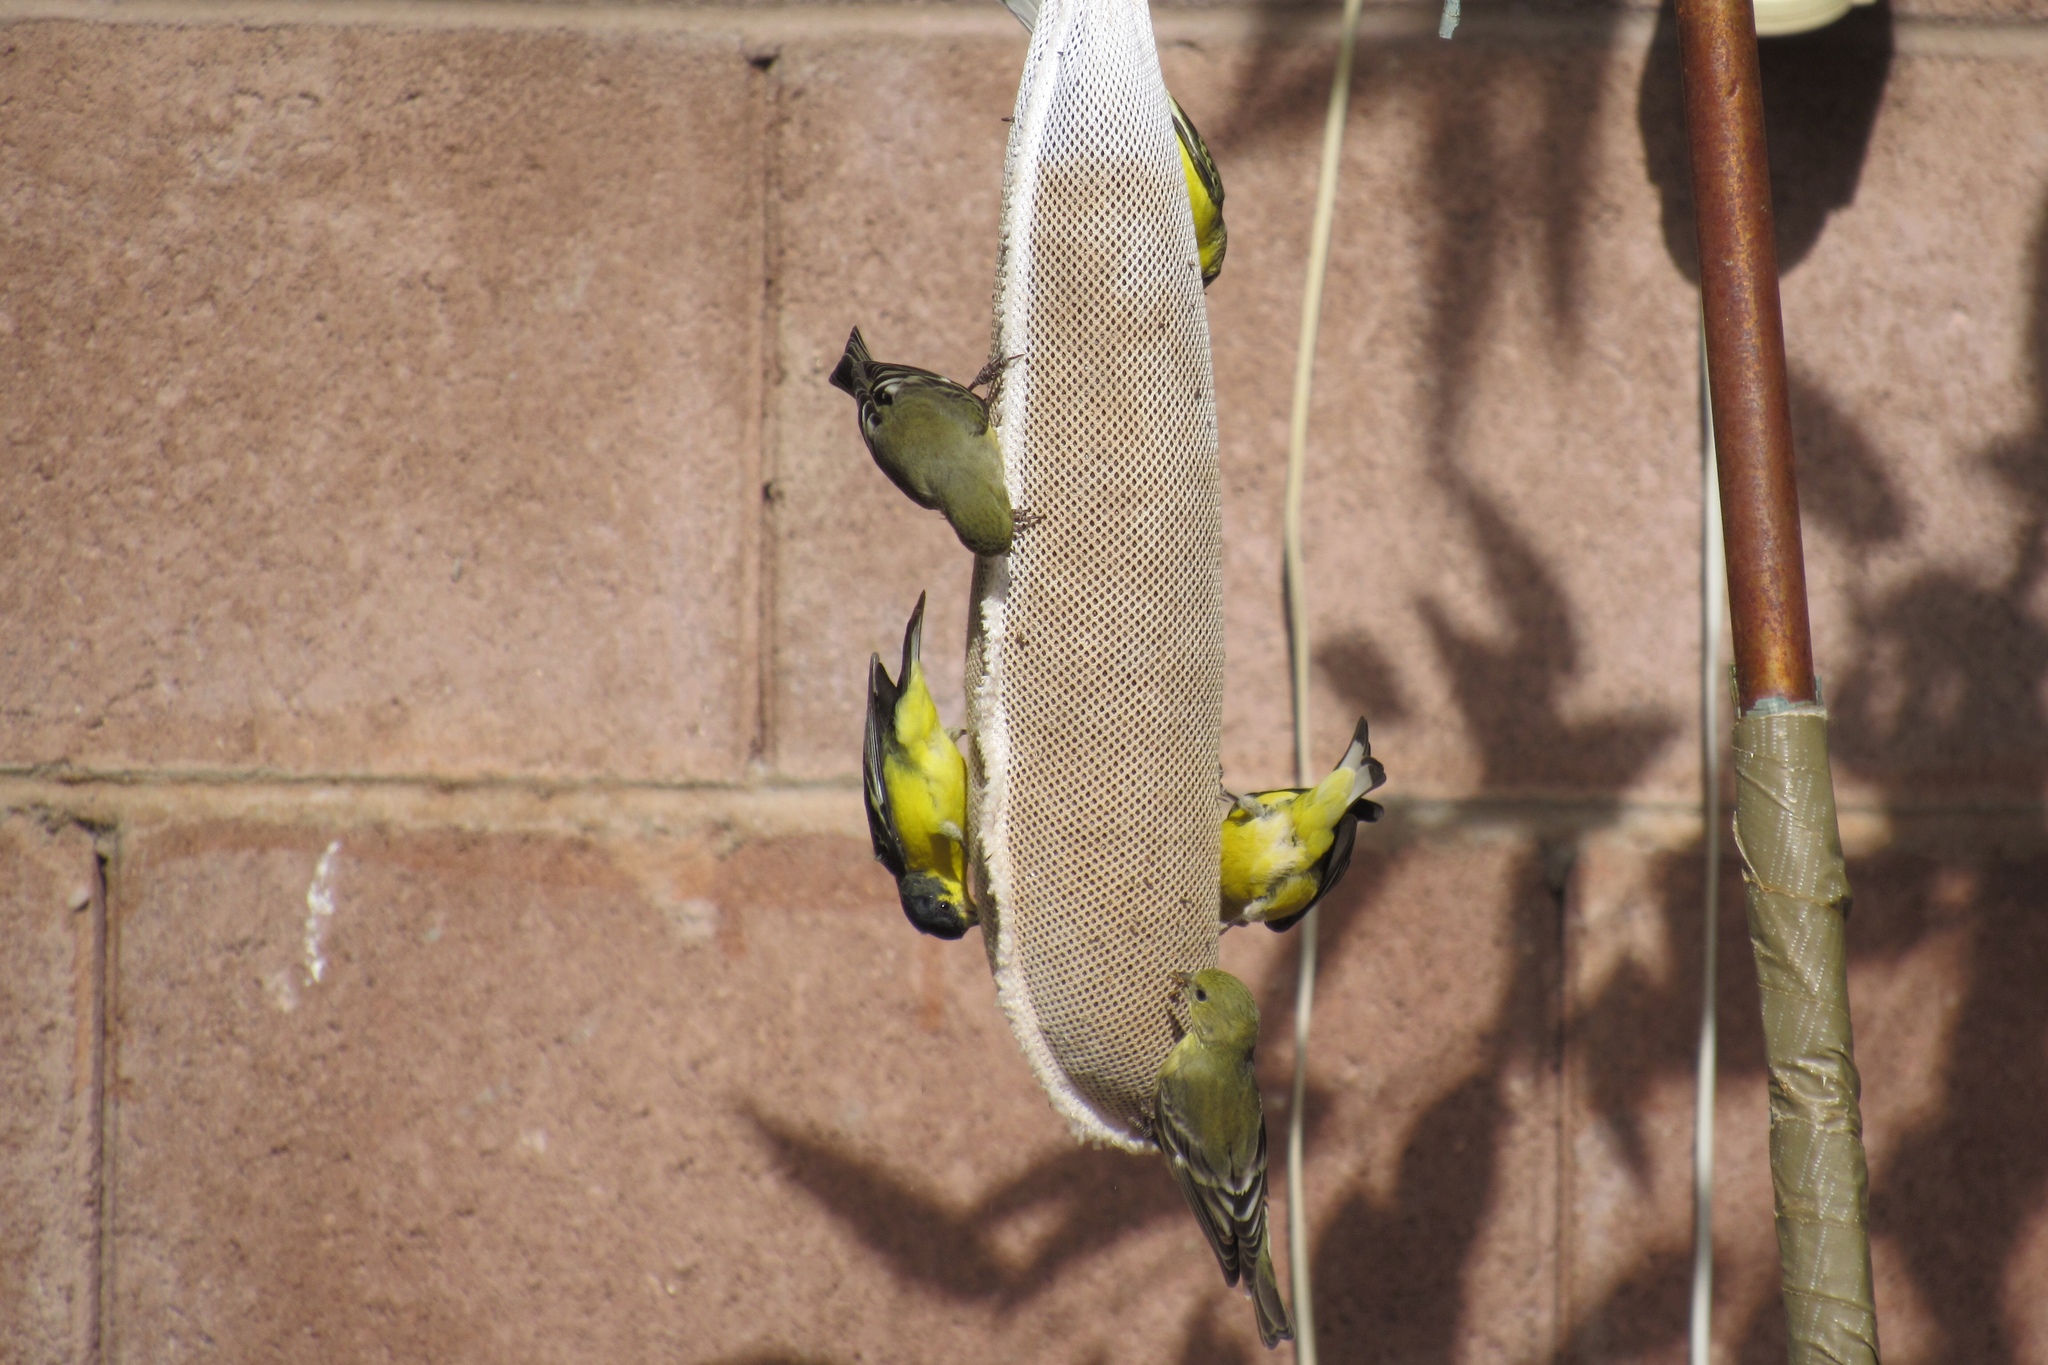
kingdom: Animalia
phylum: Chordata
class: Aves
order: Passeriformes
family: Fringillidae
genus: Spinus
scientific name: Spinus psaltria
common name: Lesser goldfinch
